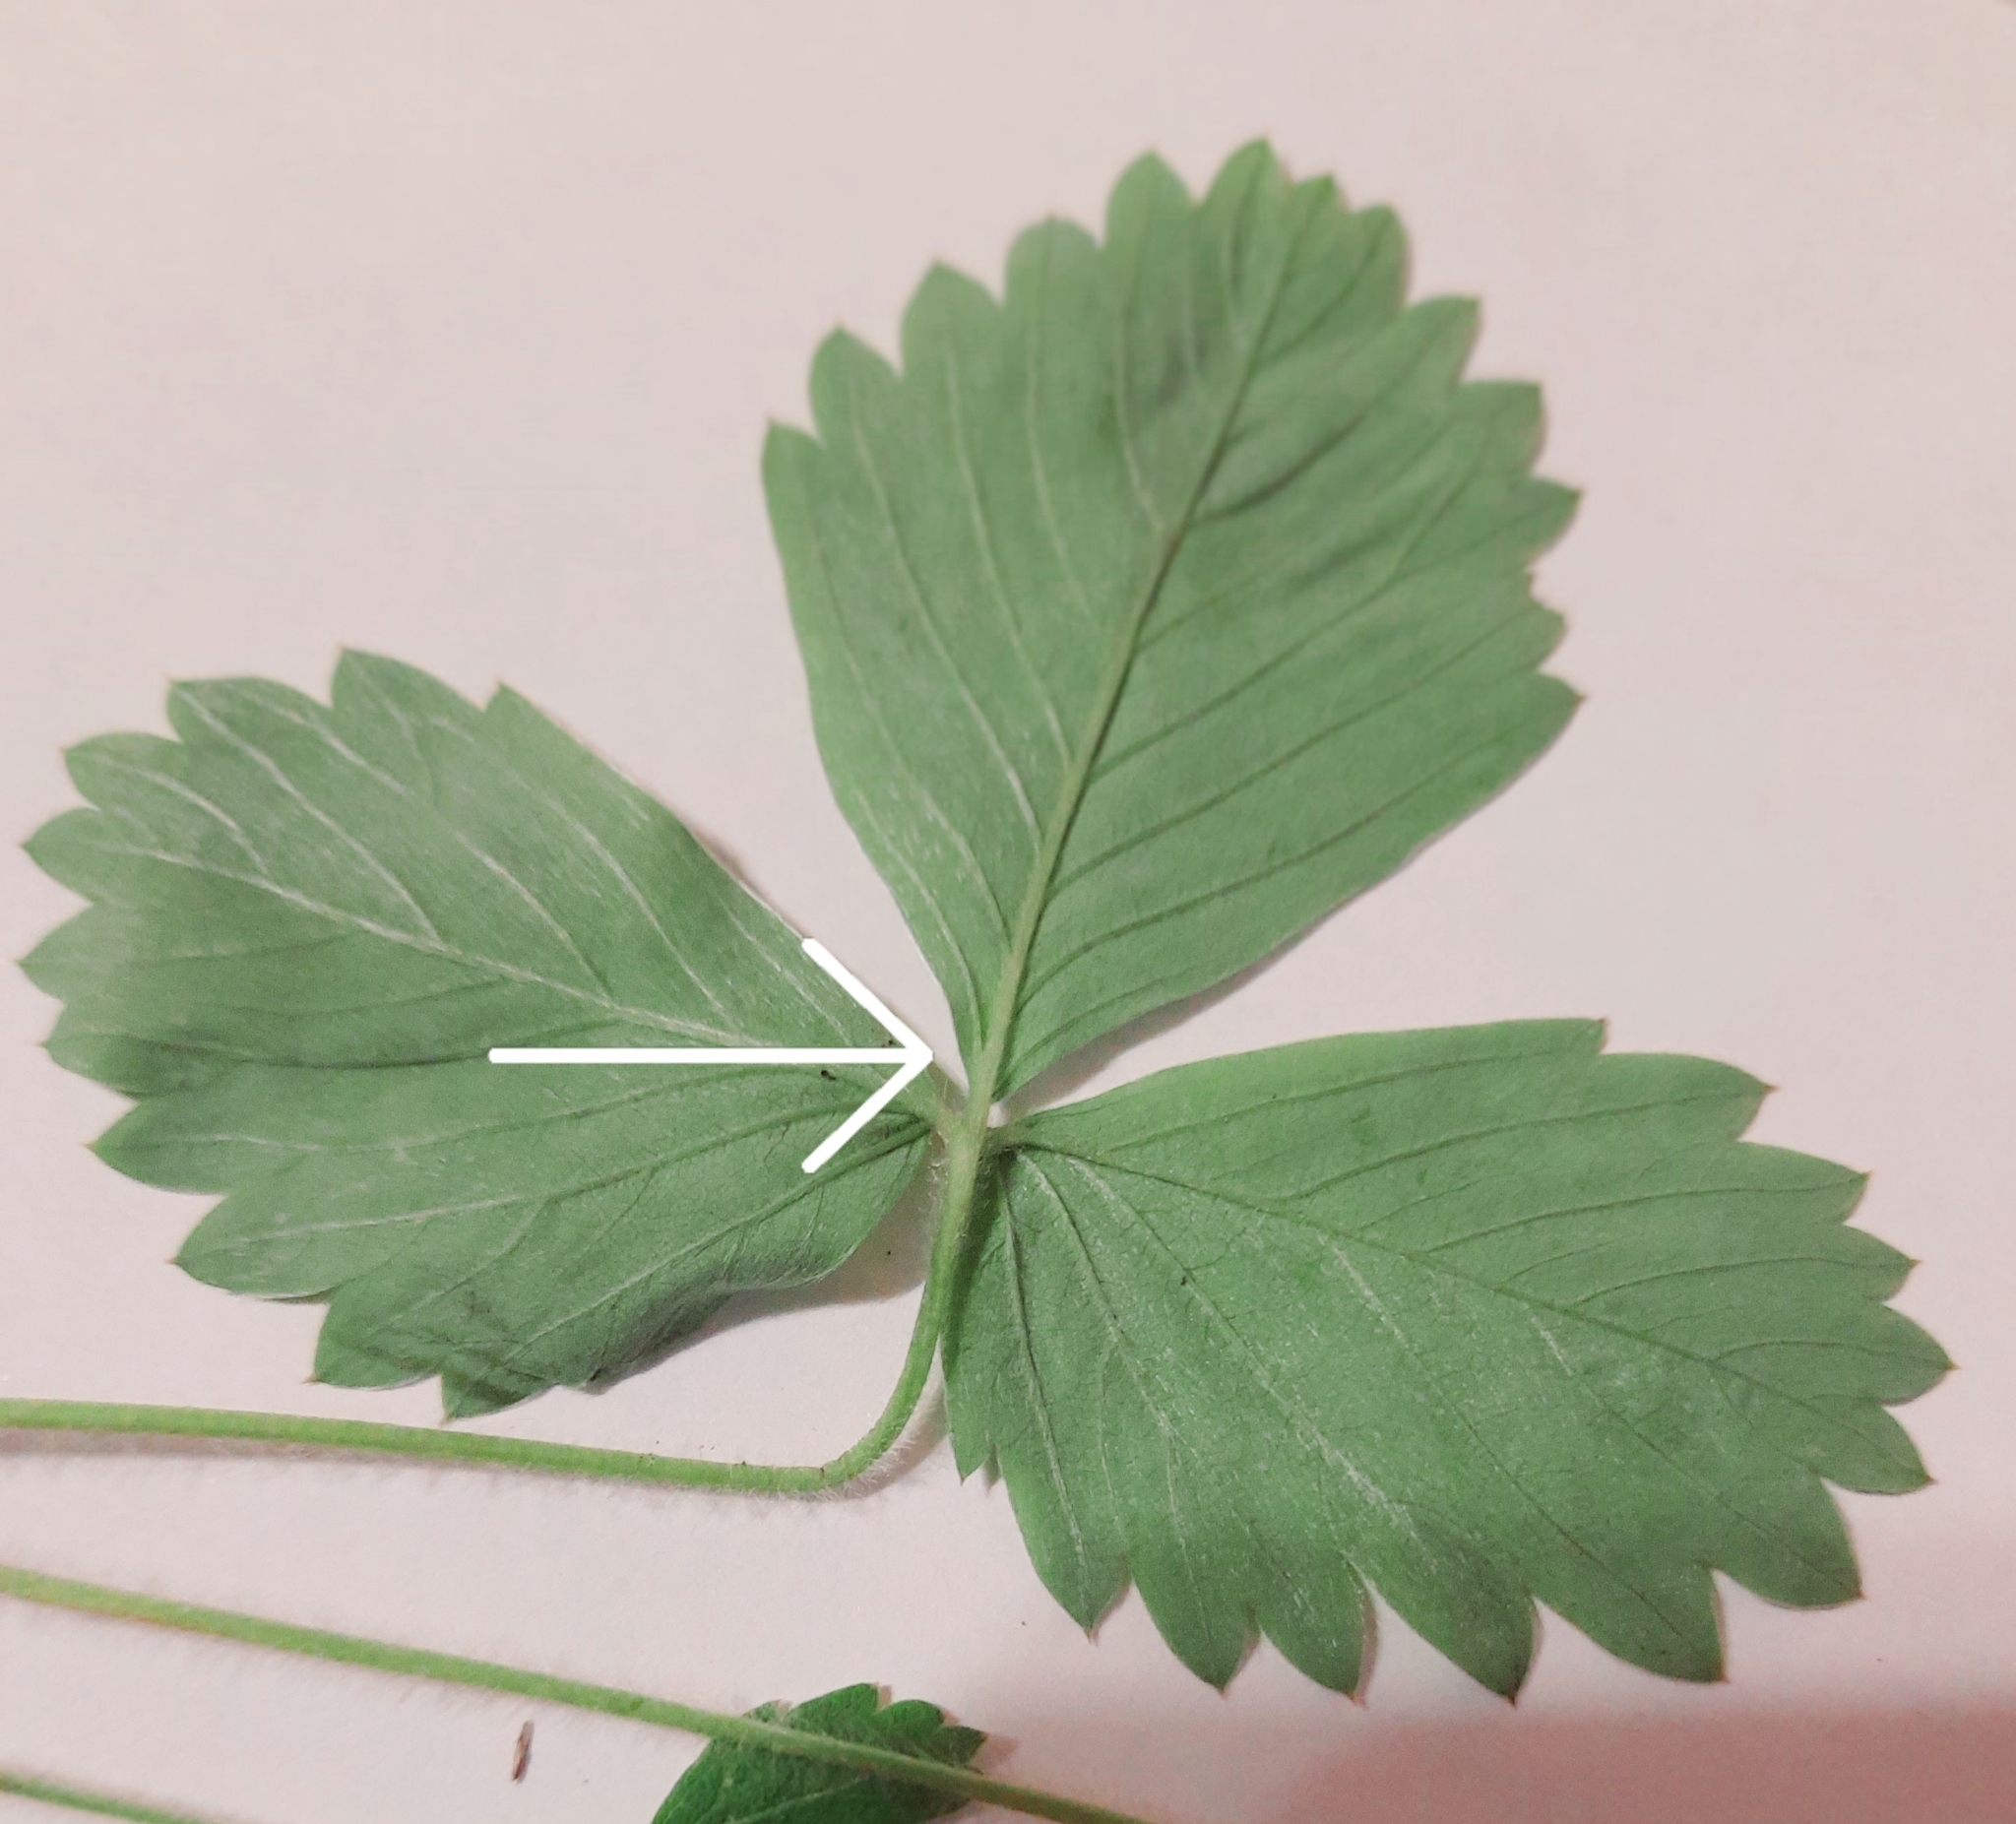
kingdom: Plantae
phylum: Tracheophyta
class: Magnoliopsida
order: Rosales
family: Rosaceae
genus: Fragaria
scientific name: Fragaria vesca
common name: Wild strawberry
